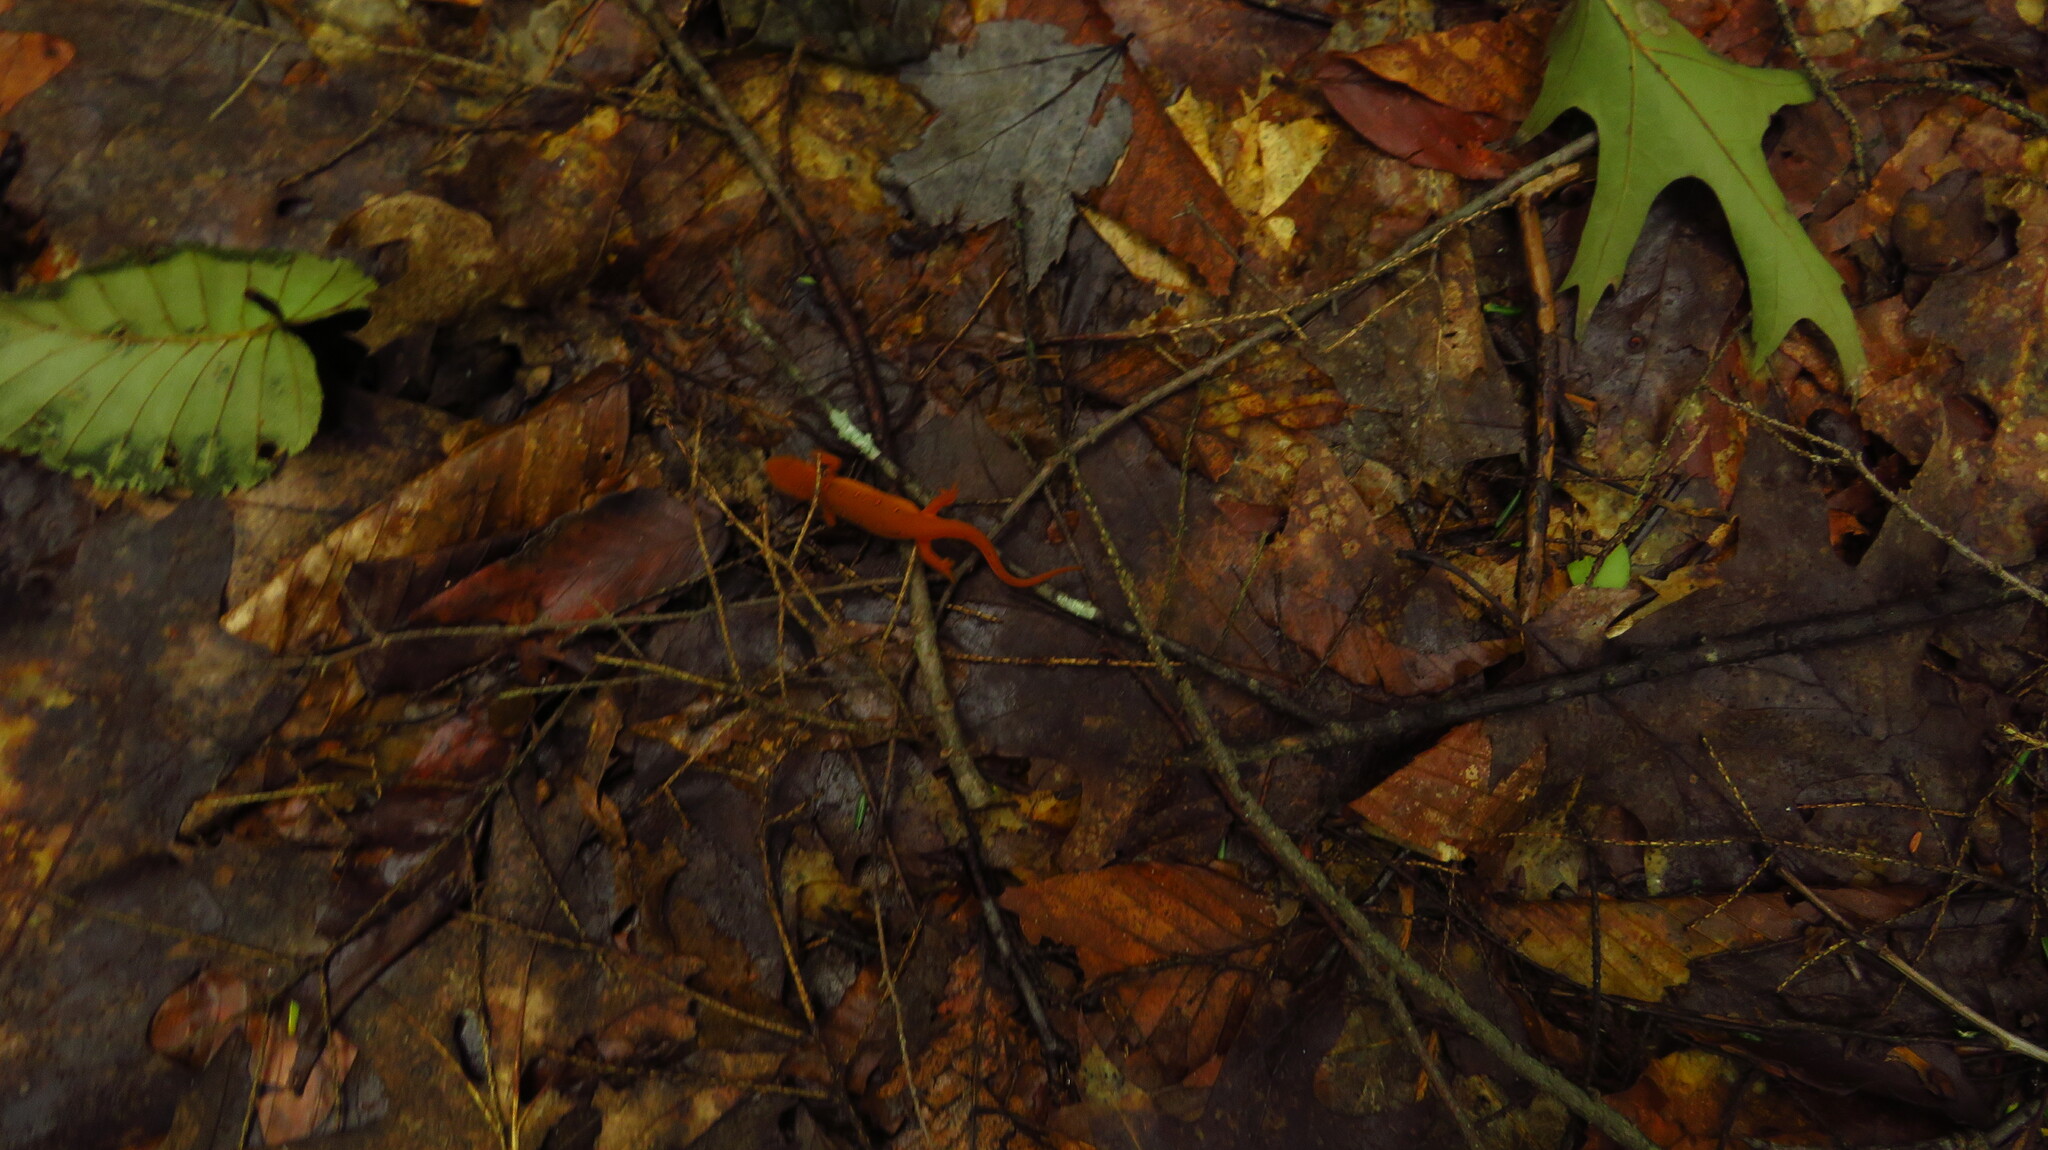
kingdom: Animalia
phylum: Chordata
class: Amphibia
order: Caudata
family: Salamandridae
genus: Notophthalmus
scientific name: Notophthalmus viridescens
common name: Eastern newt
